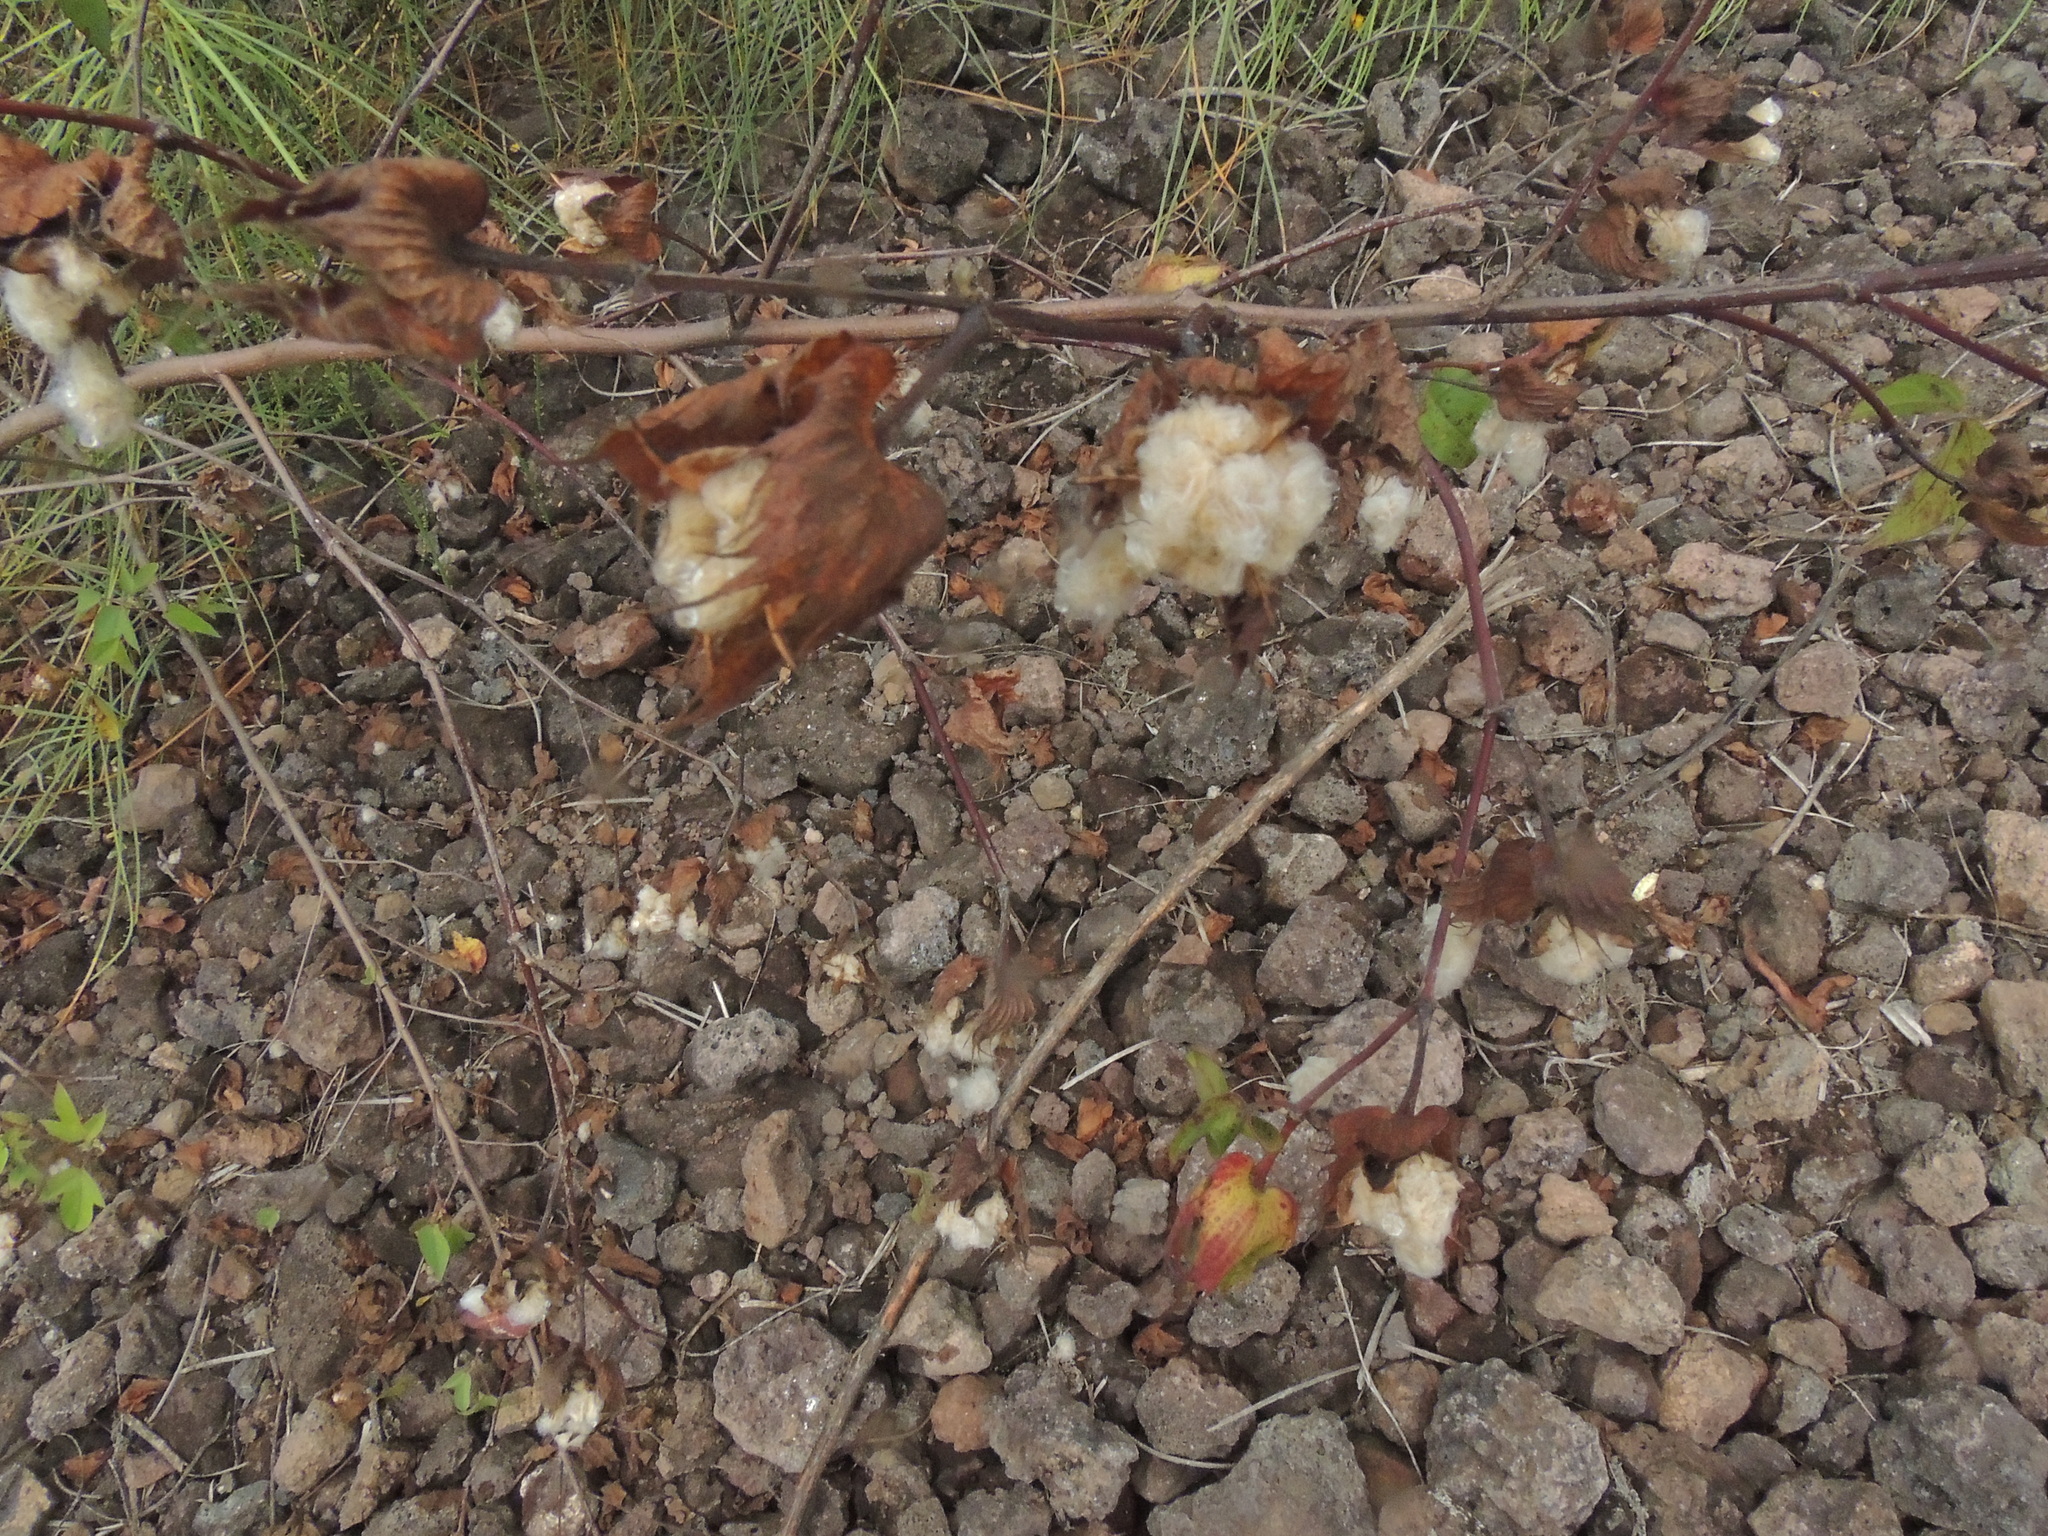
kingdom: Plantae
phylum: Tracheophyta
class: Magnoliopsida
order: Malvales
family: Malvaceae
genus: Gossypium
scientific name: Gossypium darwinii
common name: Darwin's cotton
